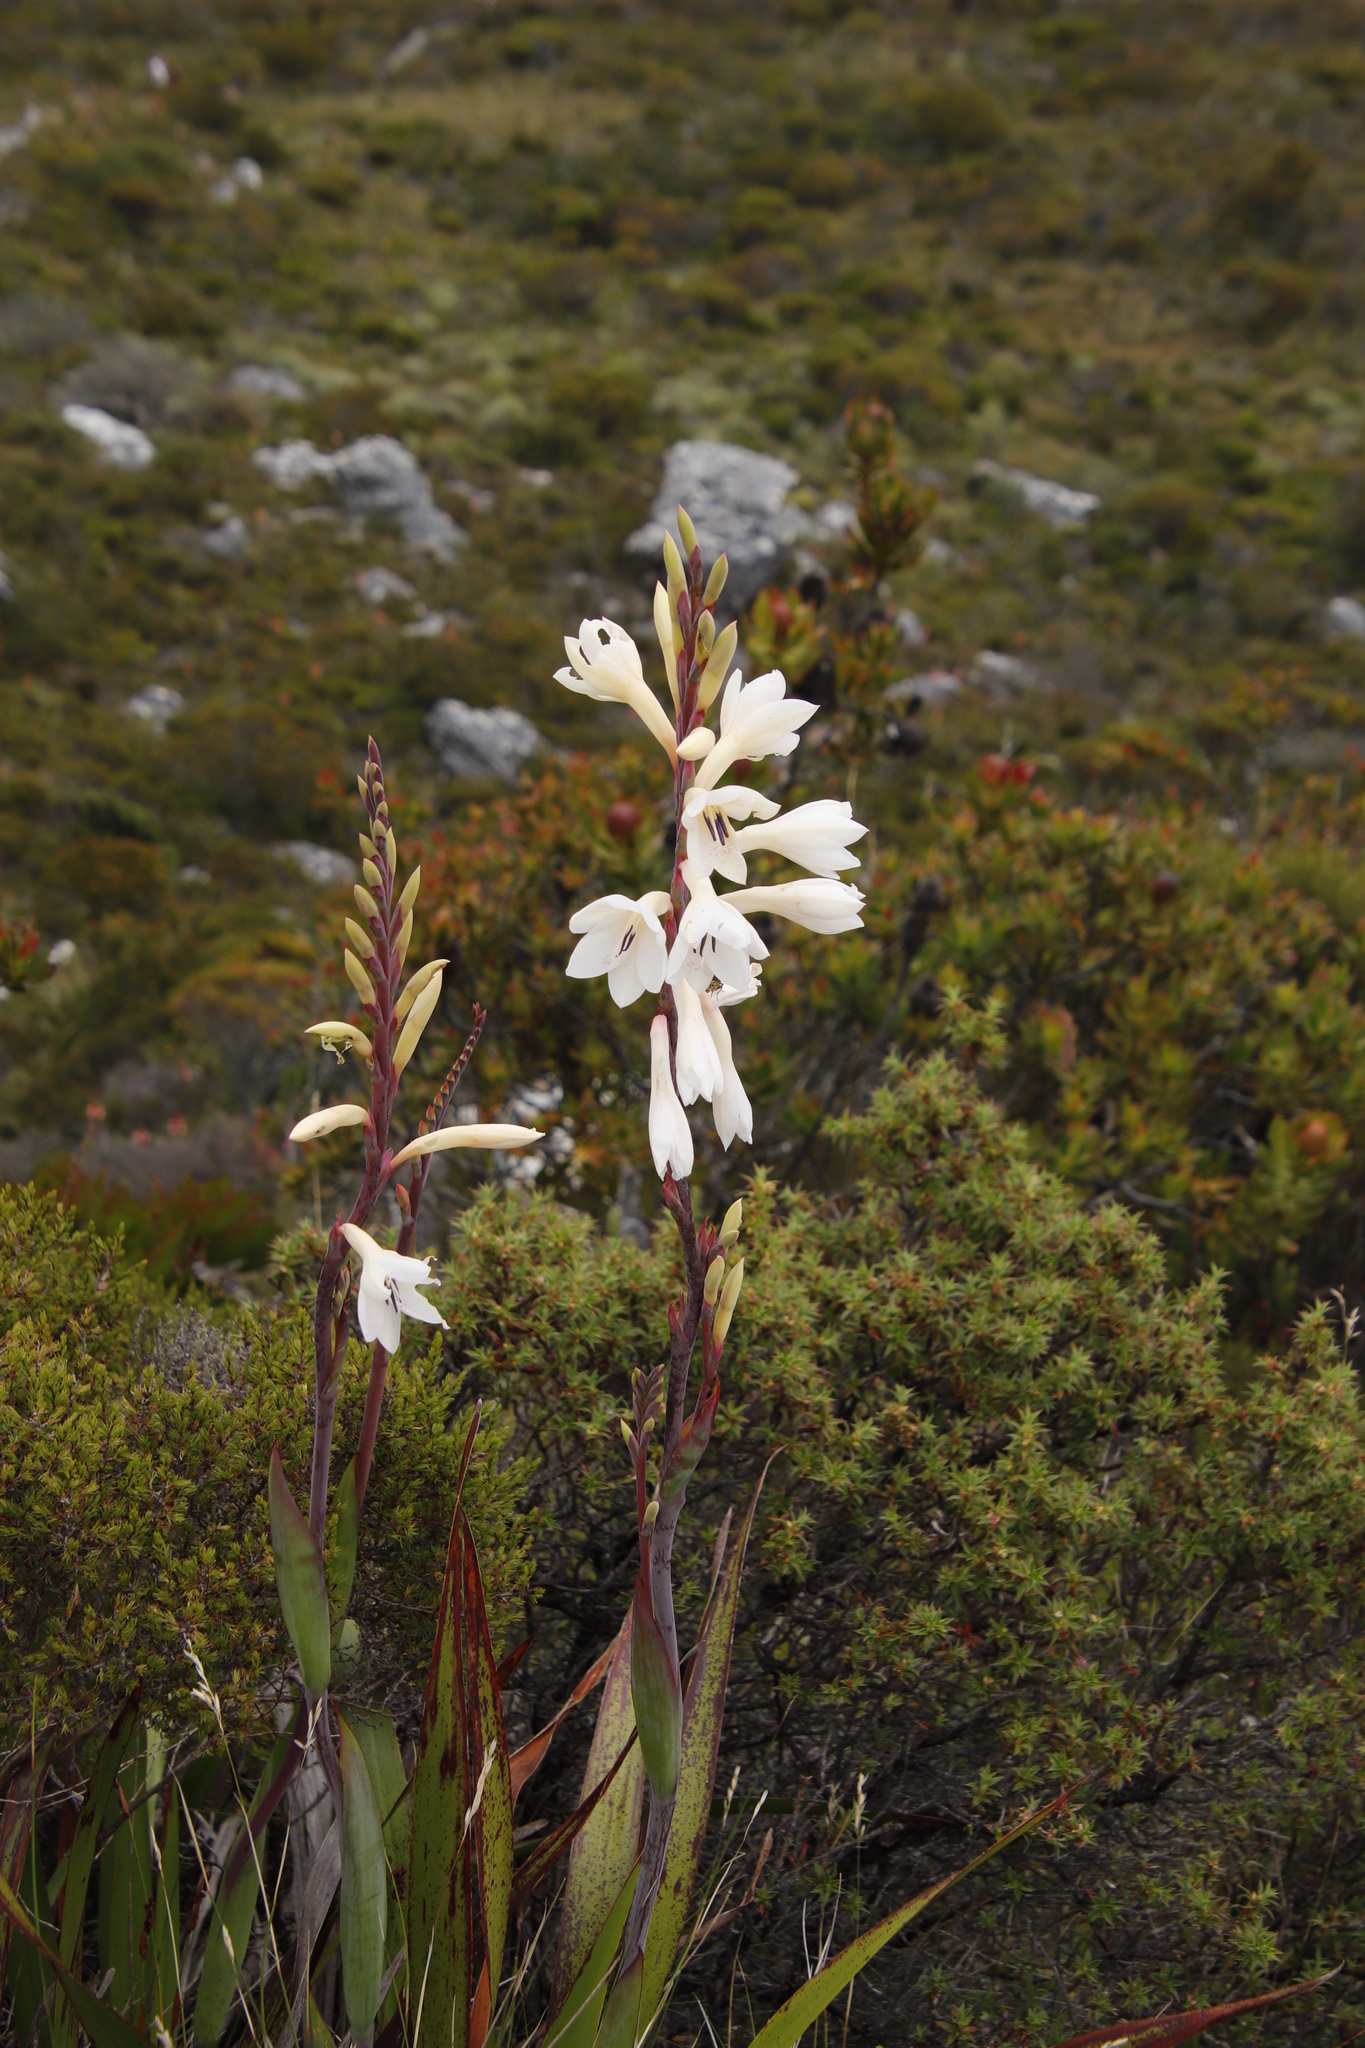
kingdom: Plantae
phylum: Tracheophyta
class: Liliopsida
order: Asparagales
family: Iridaceae
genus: Watsonia
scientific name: Watsonia tabularis
